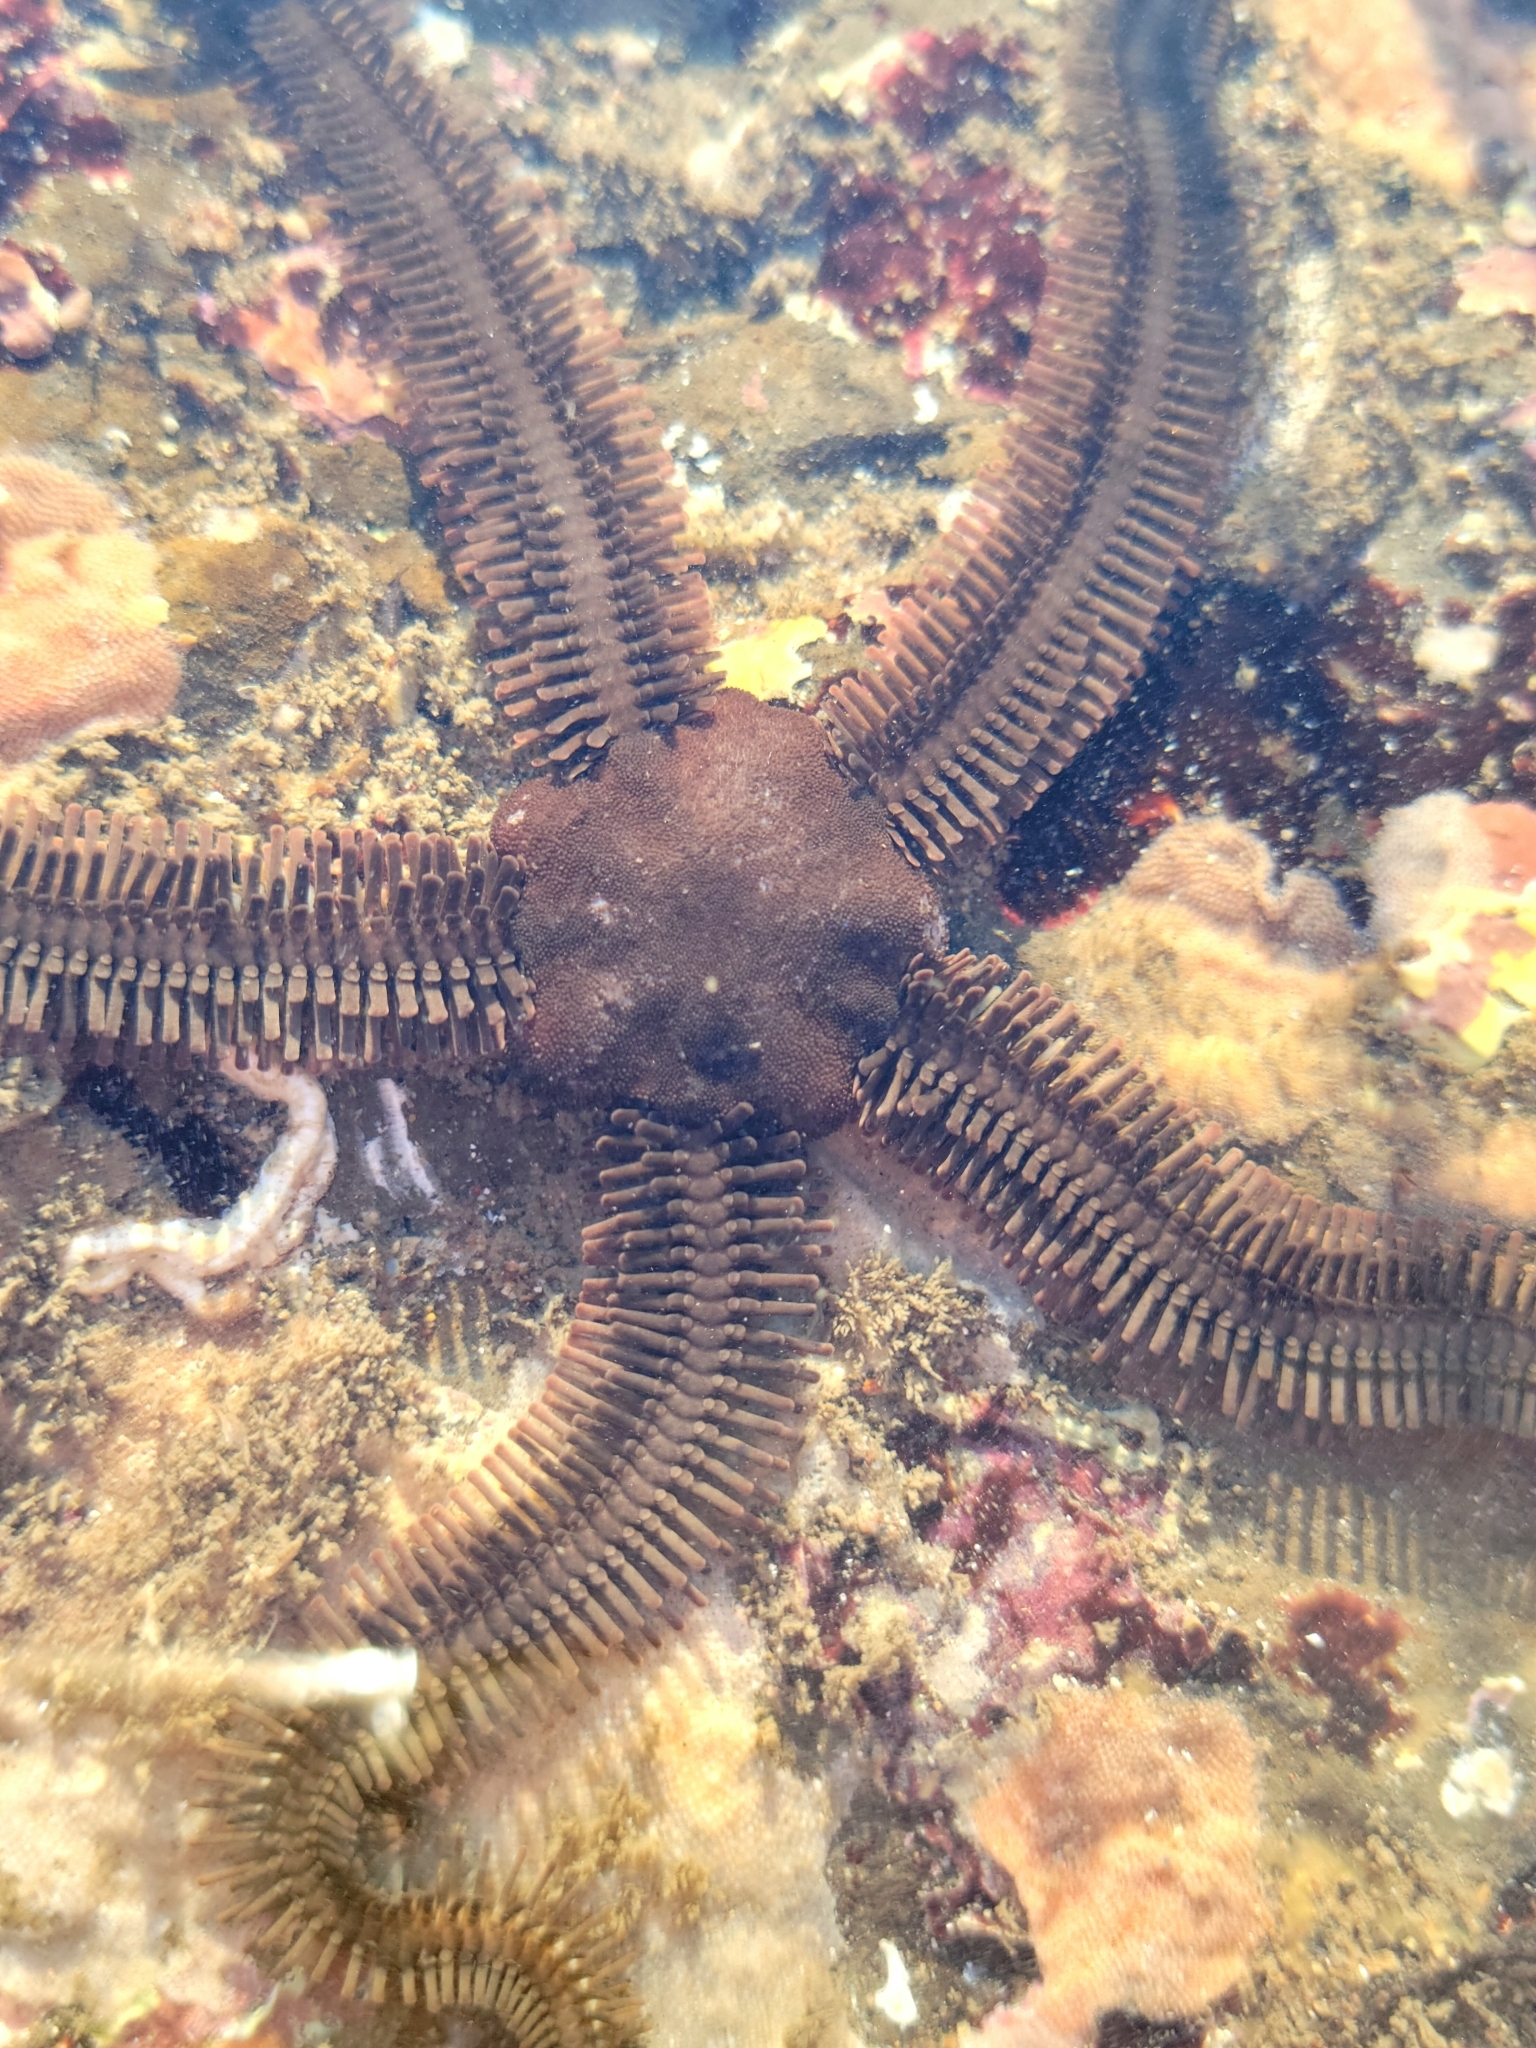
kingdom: Animalia
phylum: Echinodermata
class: Ophiuroidea
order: Ophiacanthida
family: Ophiopteridae
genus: Ophiopteris
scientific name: Ophiopteris papillosa
